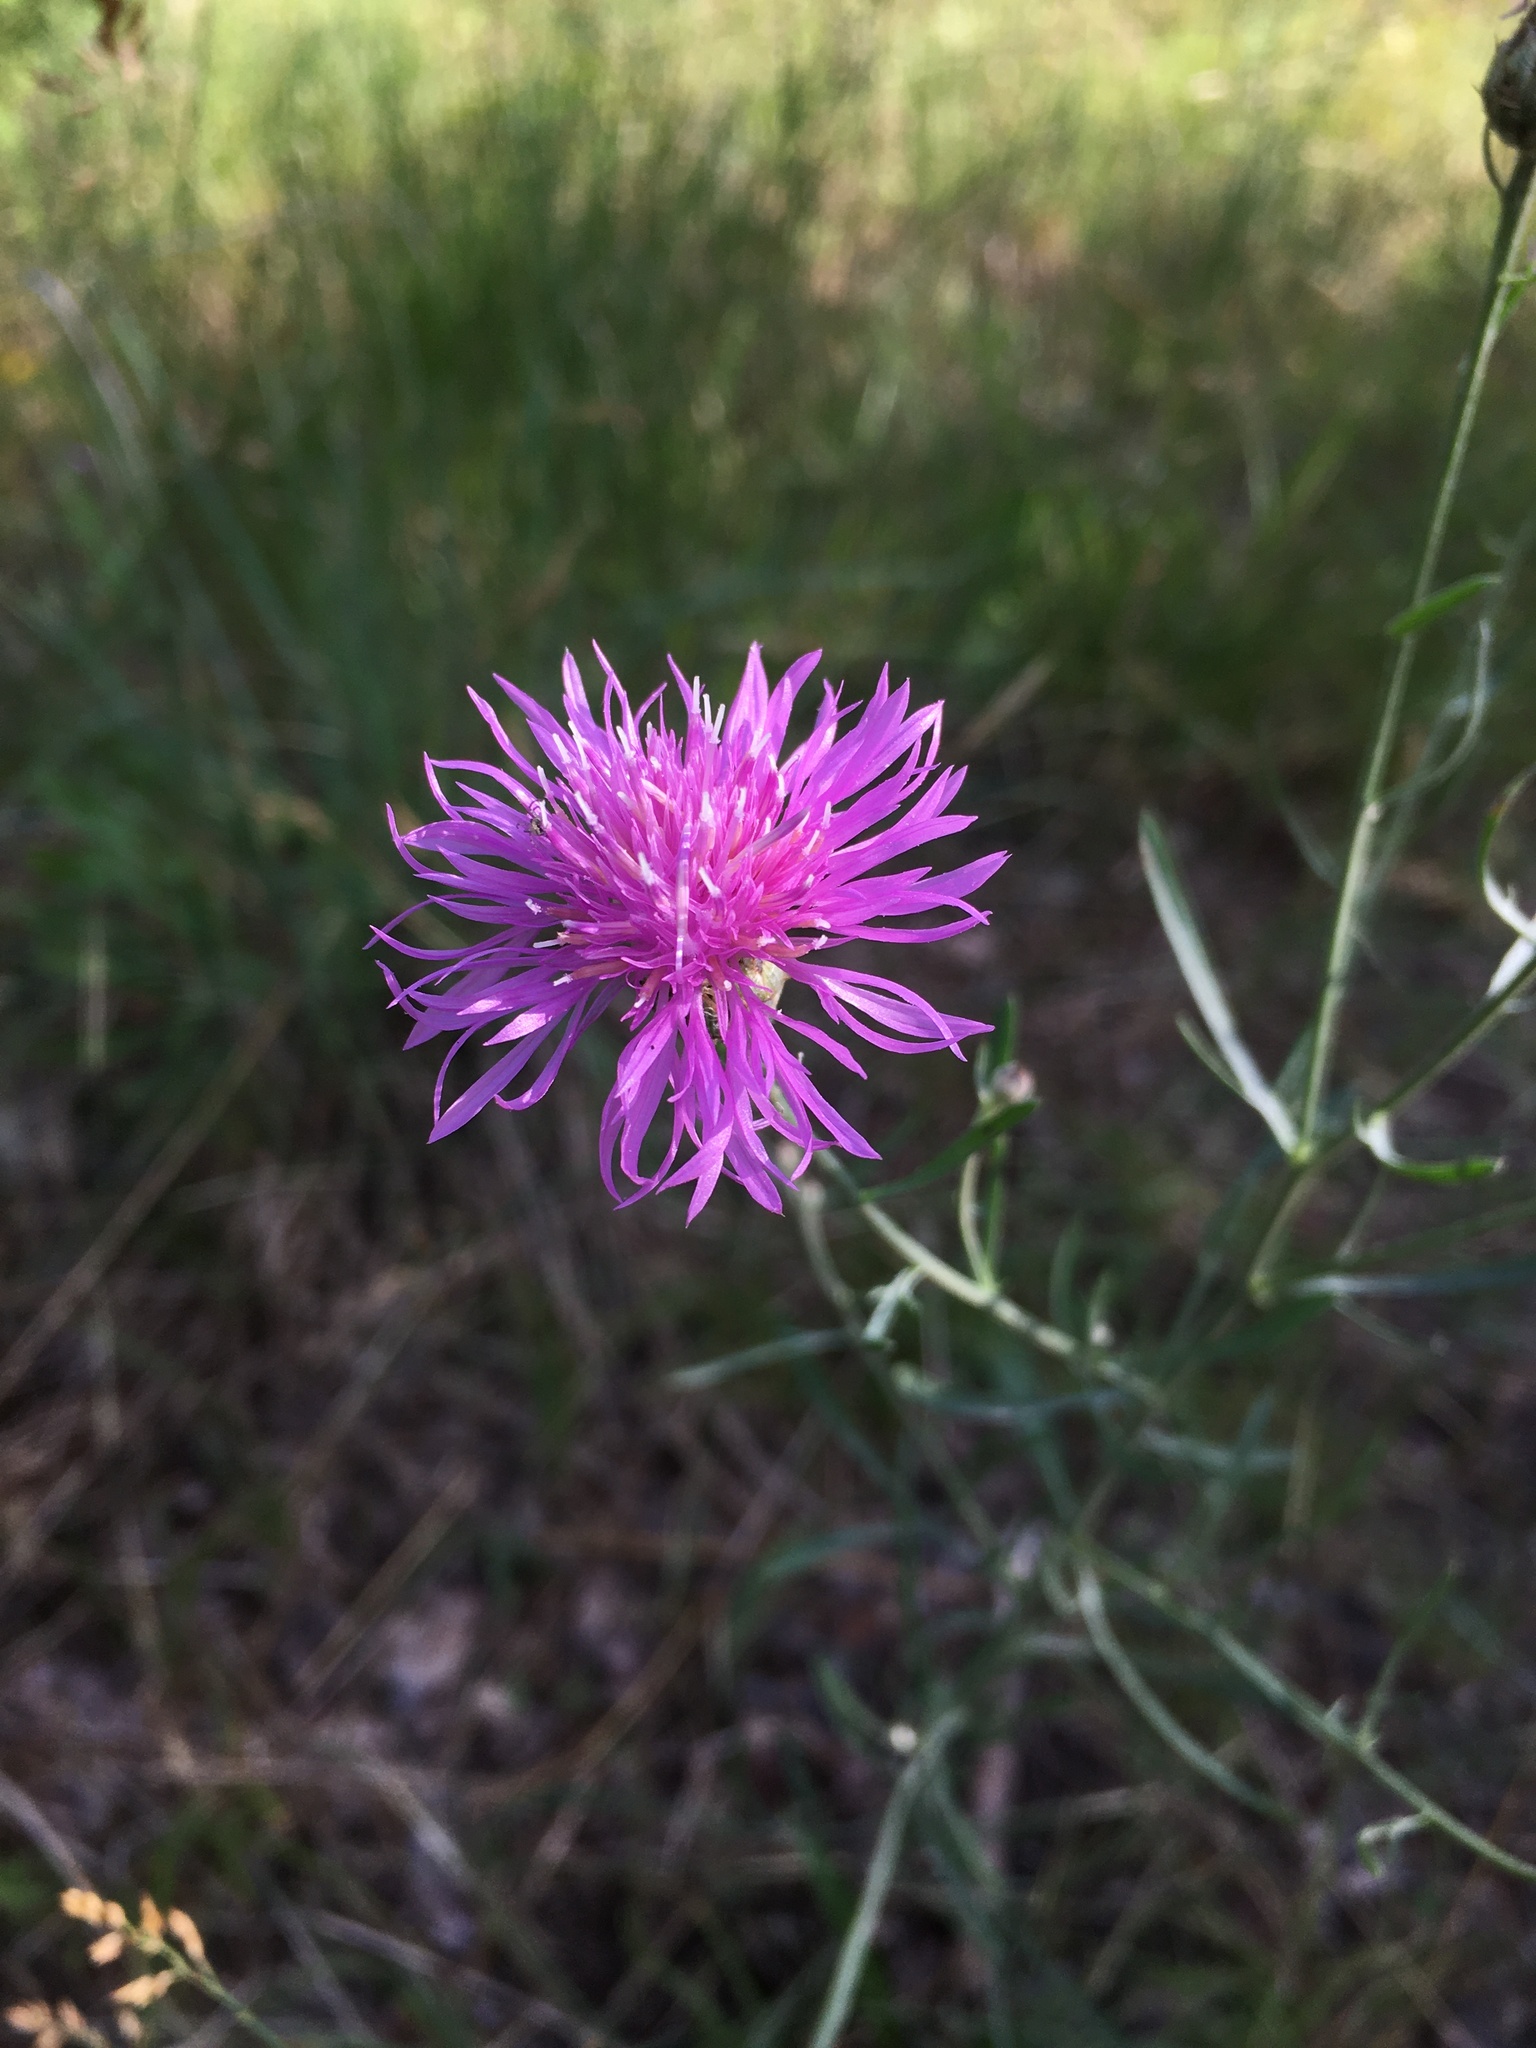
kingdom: Plantae
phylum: Tracheophyta
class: Magnoliopsida
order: Asterales
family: Asteraceae
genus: Centaurea
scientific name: Centaurea stoebe
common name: Spotted knapweed
